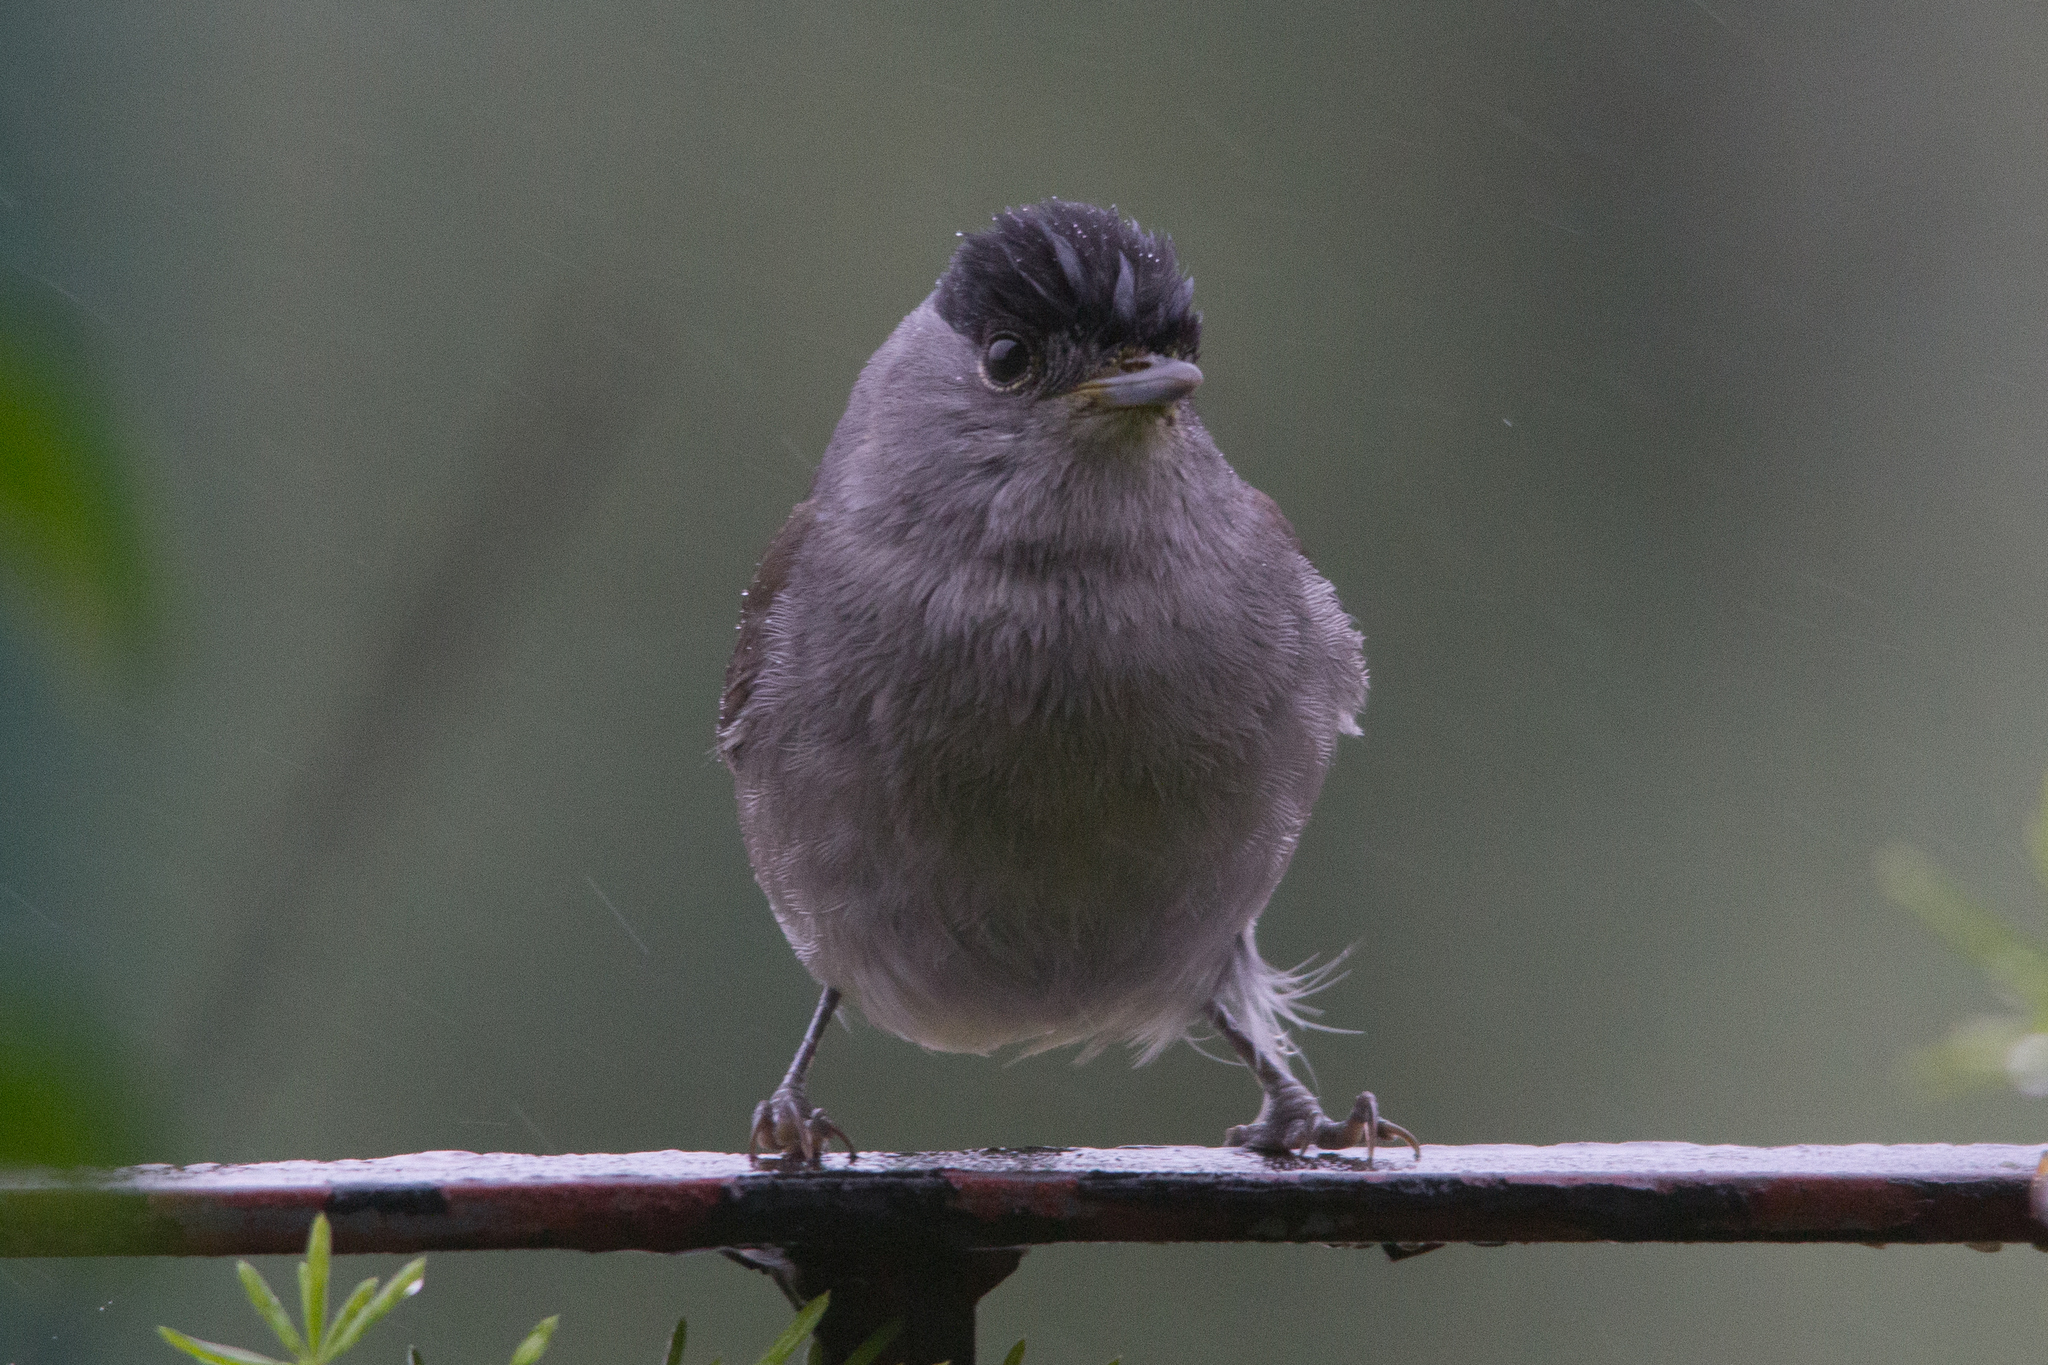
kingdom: Animalia
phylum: Chordata
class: Aves
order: Passeriformes
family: Sylviidae
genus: Sylvia
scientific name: Sylvia atricapilla
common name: Eurasian blackcap
